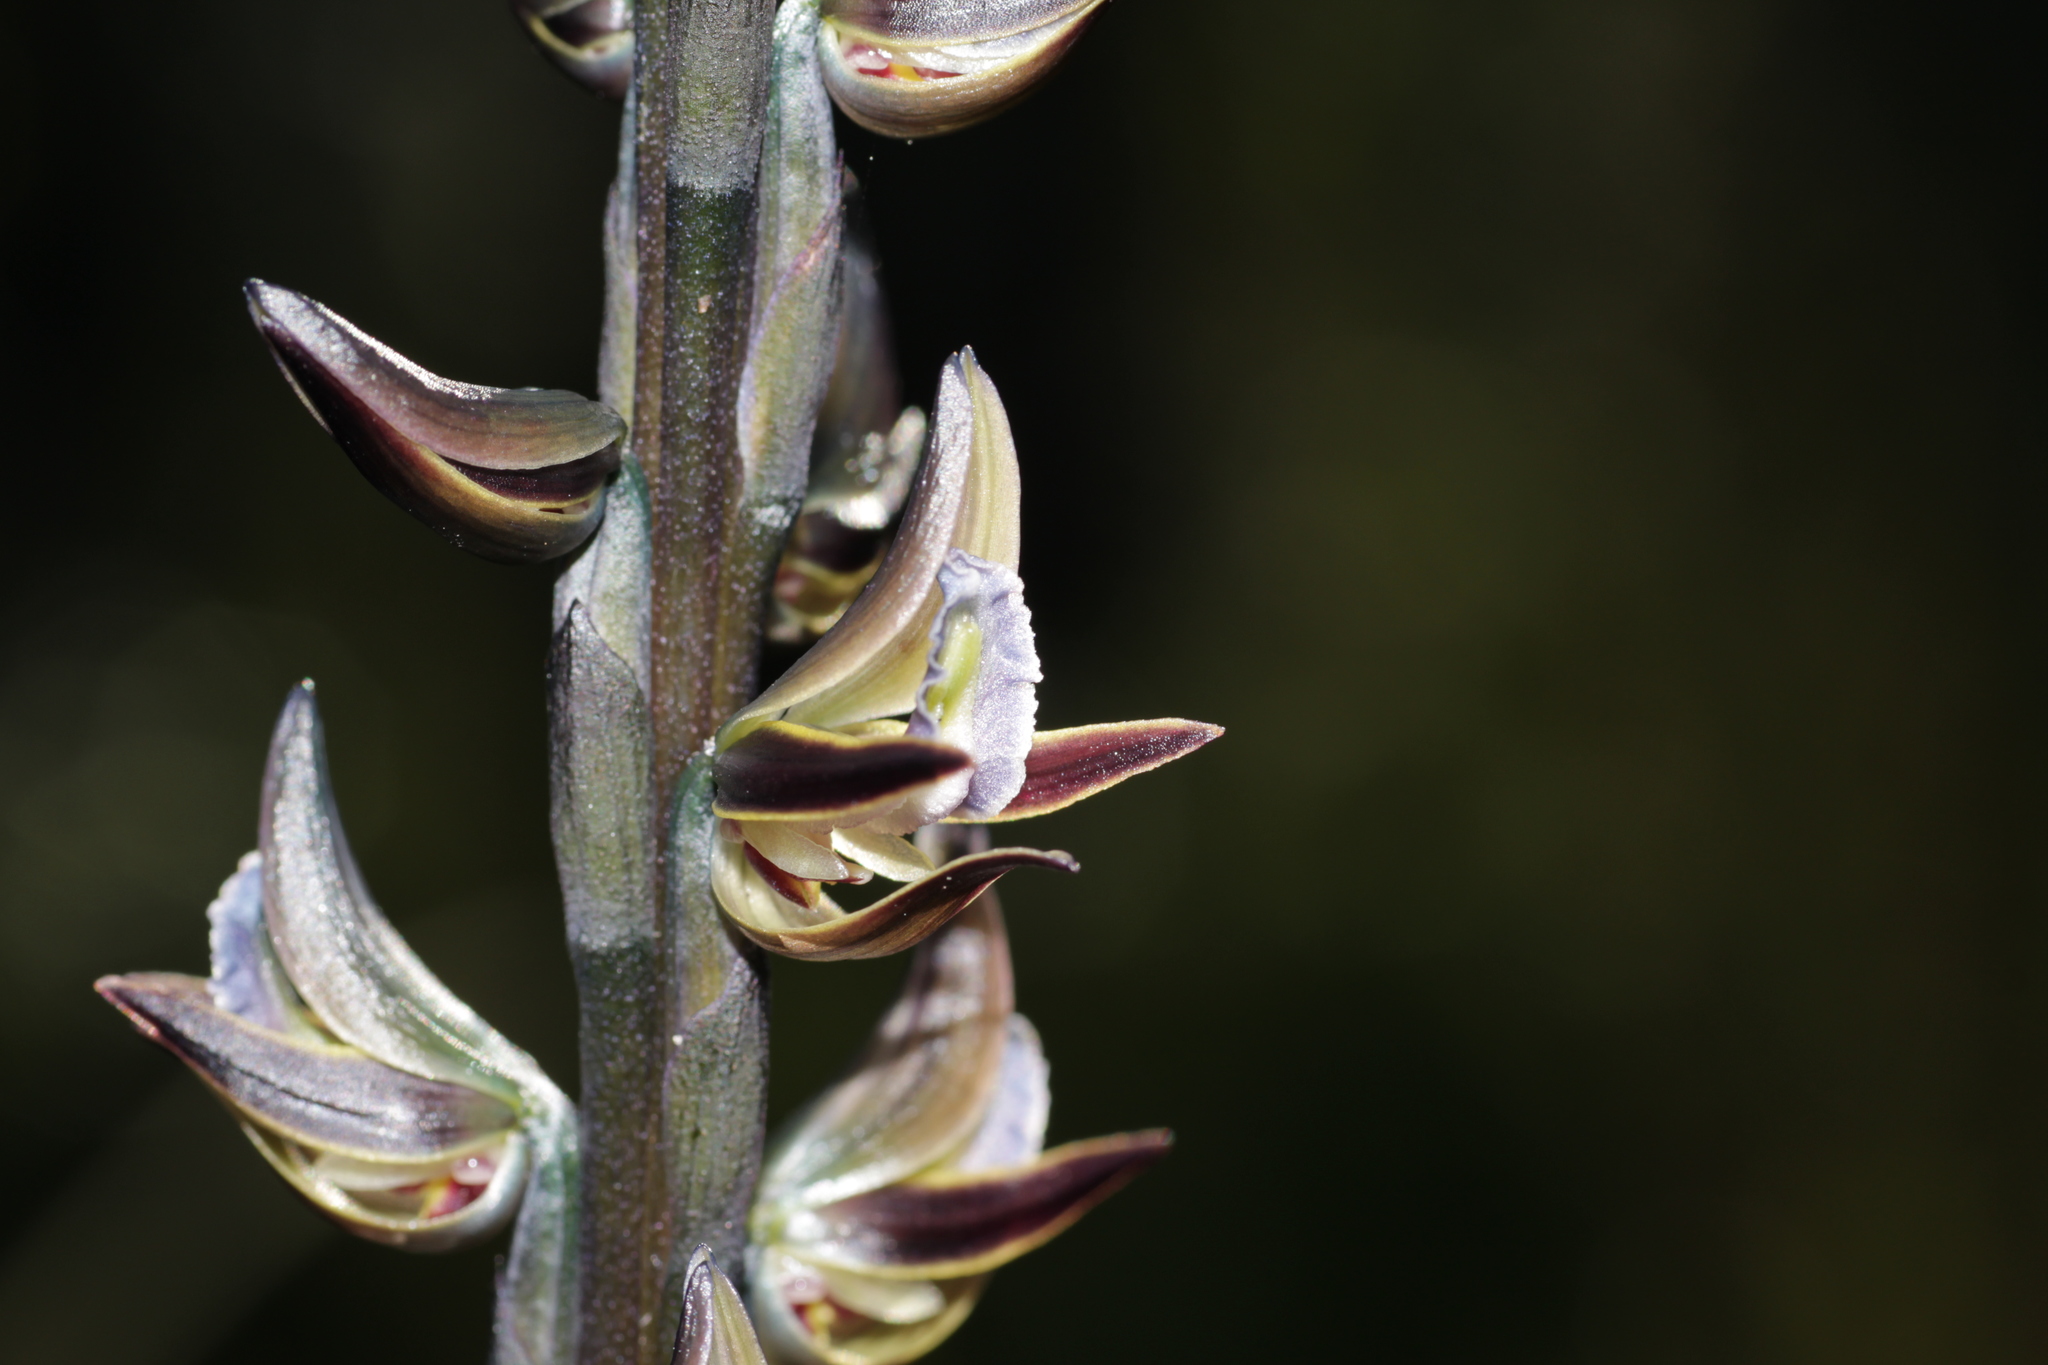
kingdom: Plantae
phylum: Tracheophyta
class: Liliopsida
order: Asparagales
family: Orchidaceae
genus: Prasophyllum
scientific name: Prasophyllum giganteum
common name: Bronze leek orchid
